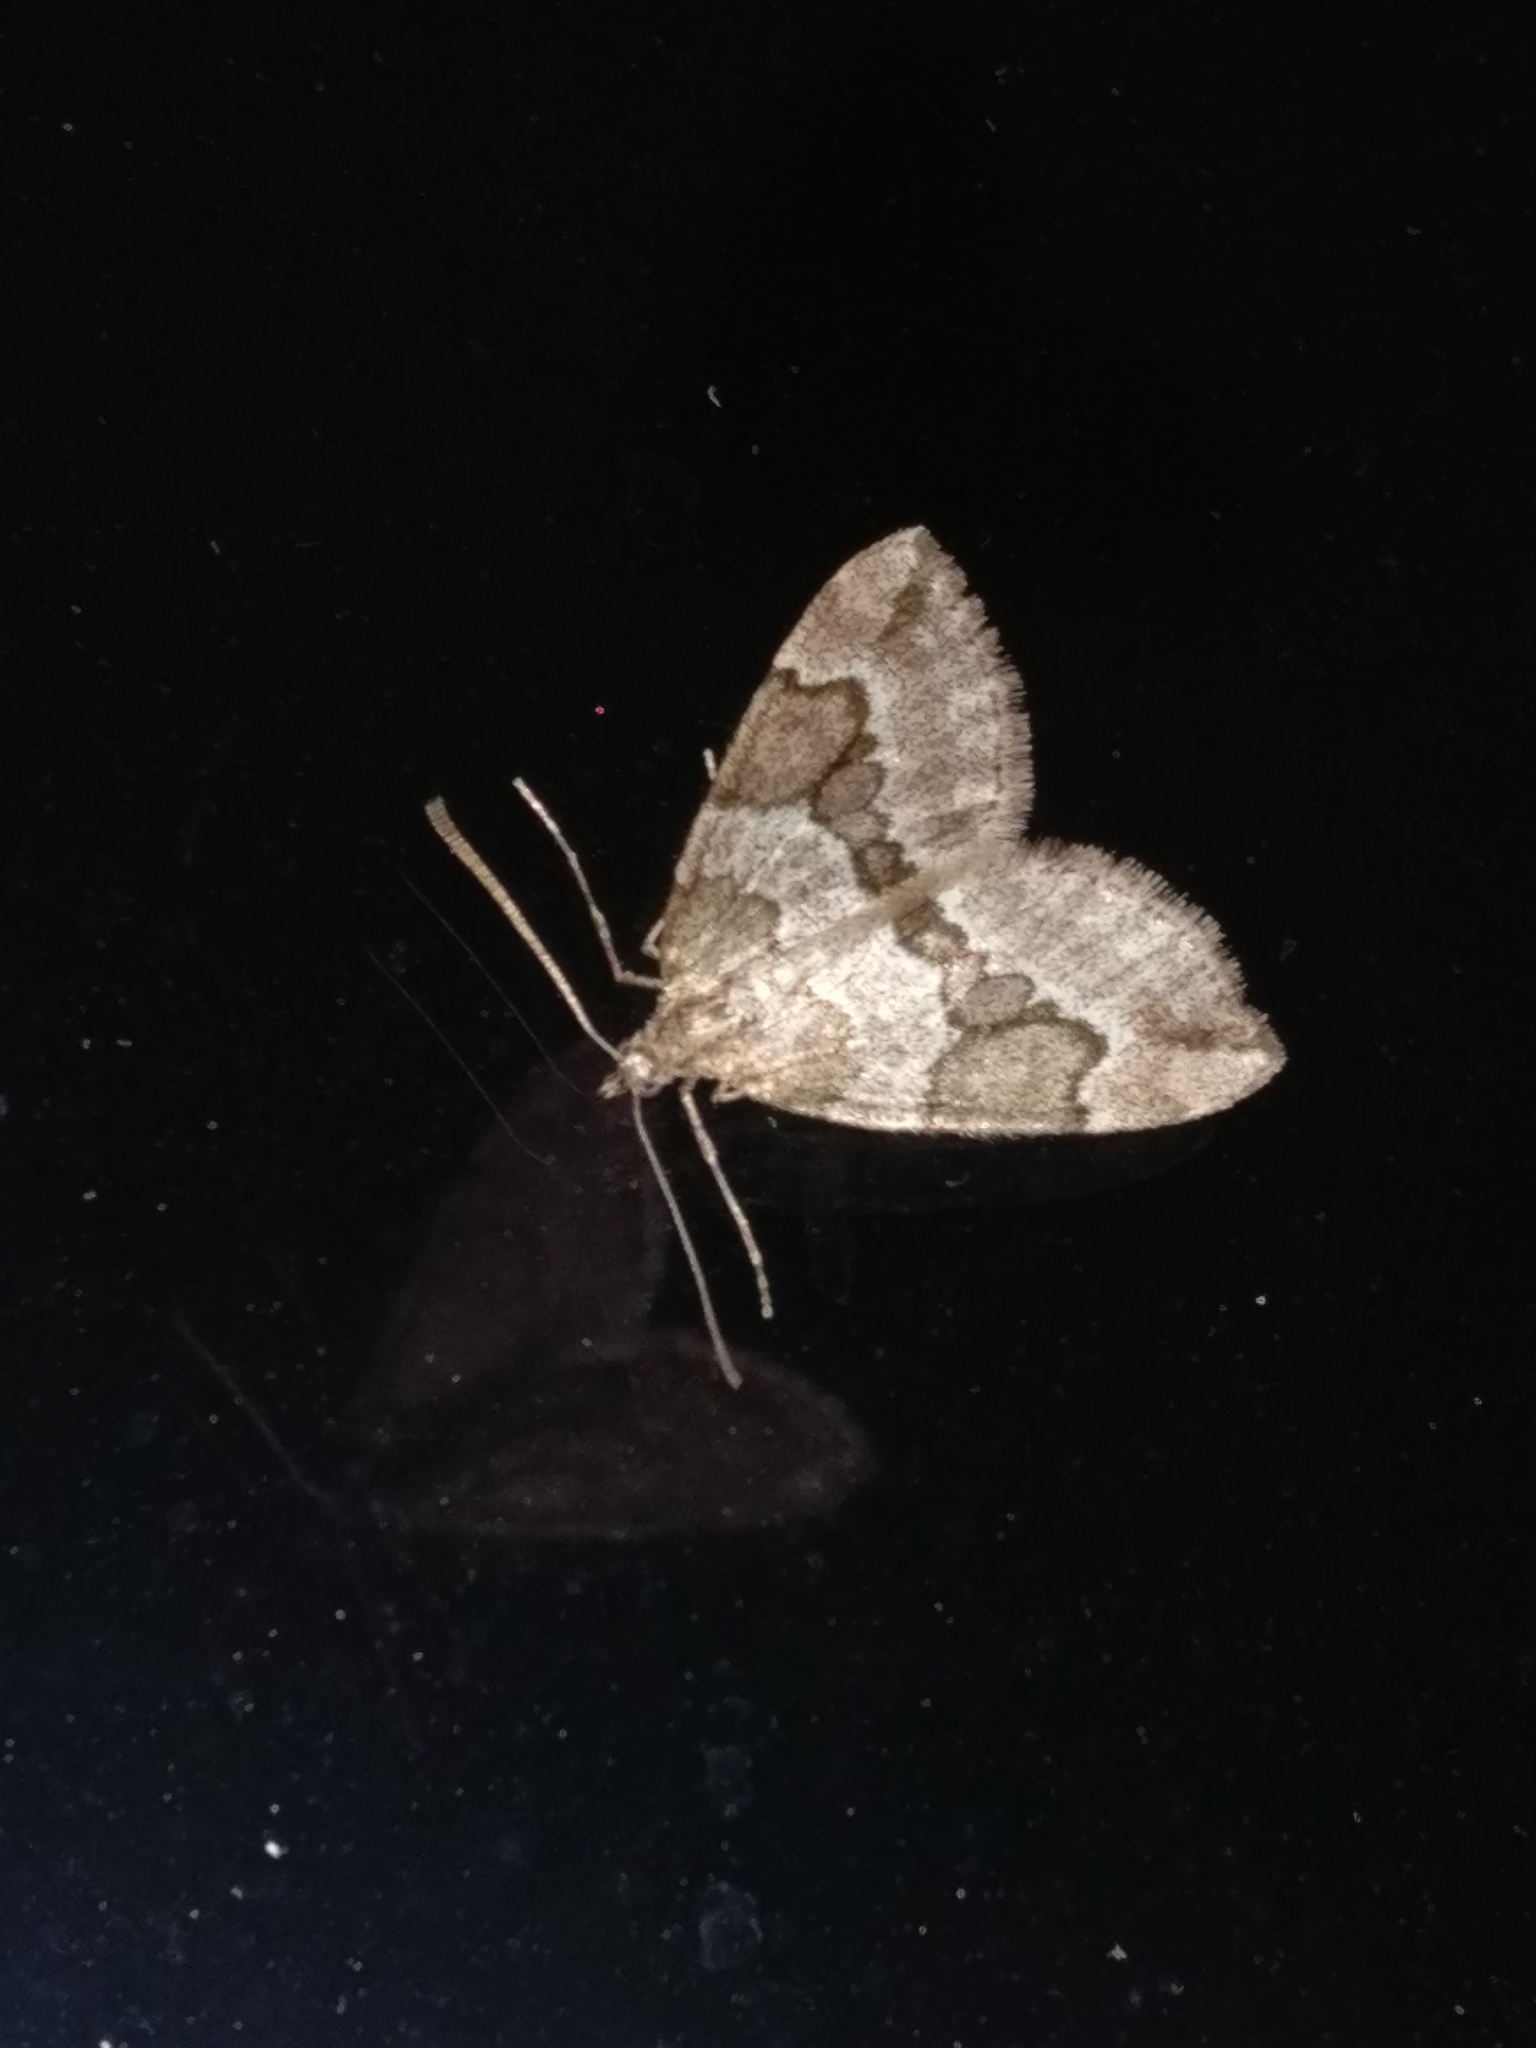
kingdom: Animalia
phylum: Arthropoda
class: Insecta
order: Lepidoptera
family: Geometridae
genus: Thera
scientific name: Thera juniperata
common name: Juniper carpet
